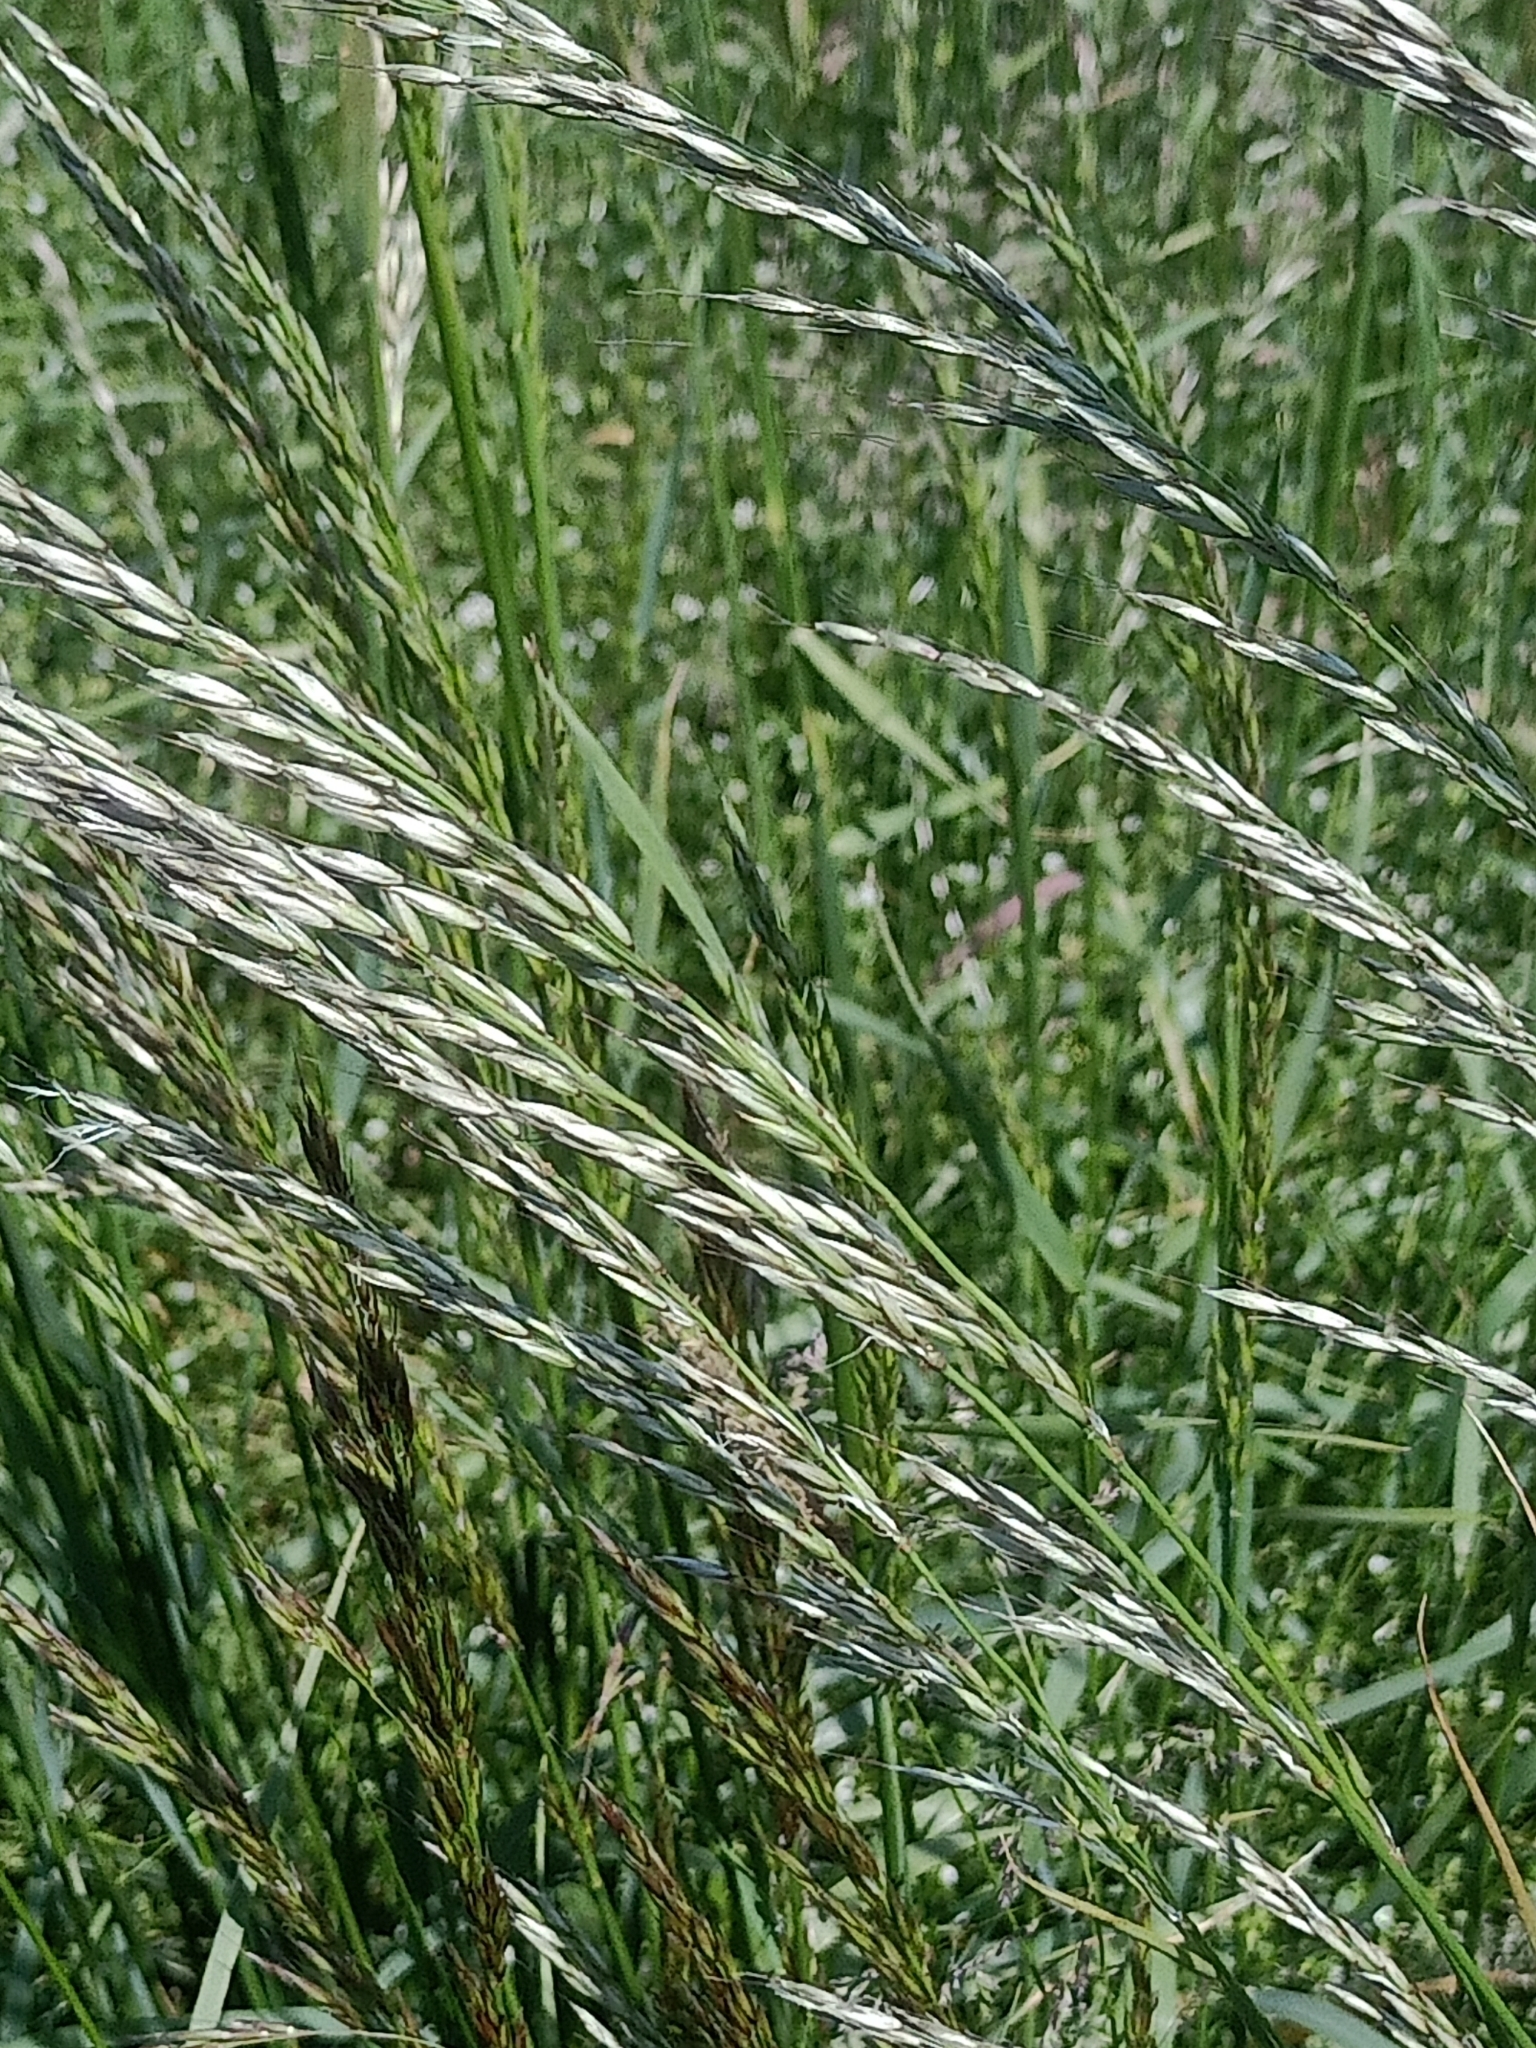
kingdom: Plantae
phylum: Tracheophyta
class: Liliopsida
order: Poales
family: Poaceae
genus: Arrhenatherum
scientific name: Arrhenatherum elatius
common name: Tall oatgrass
